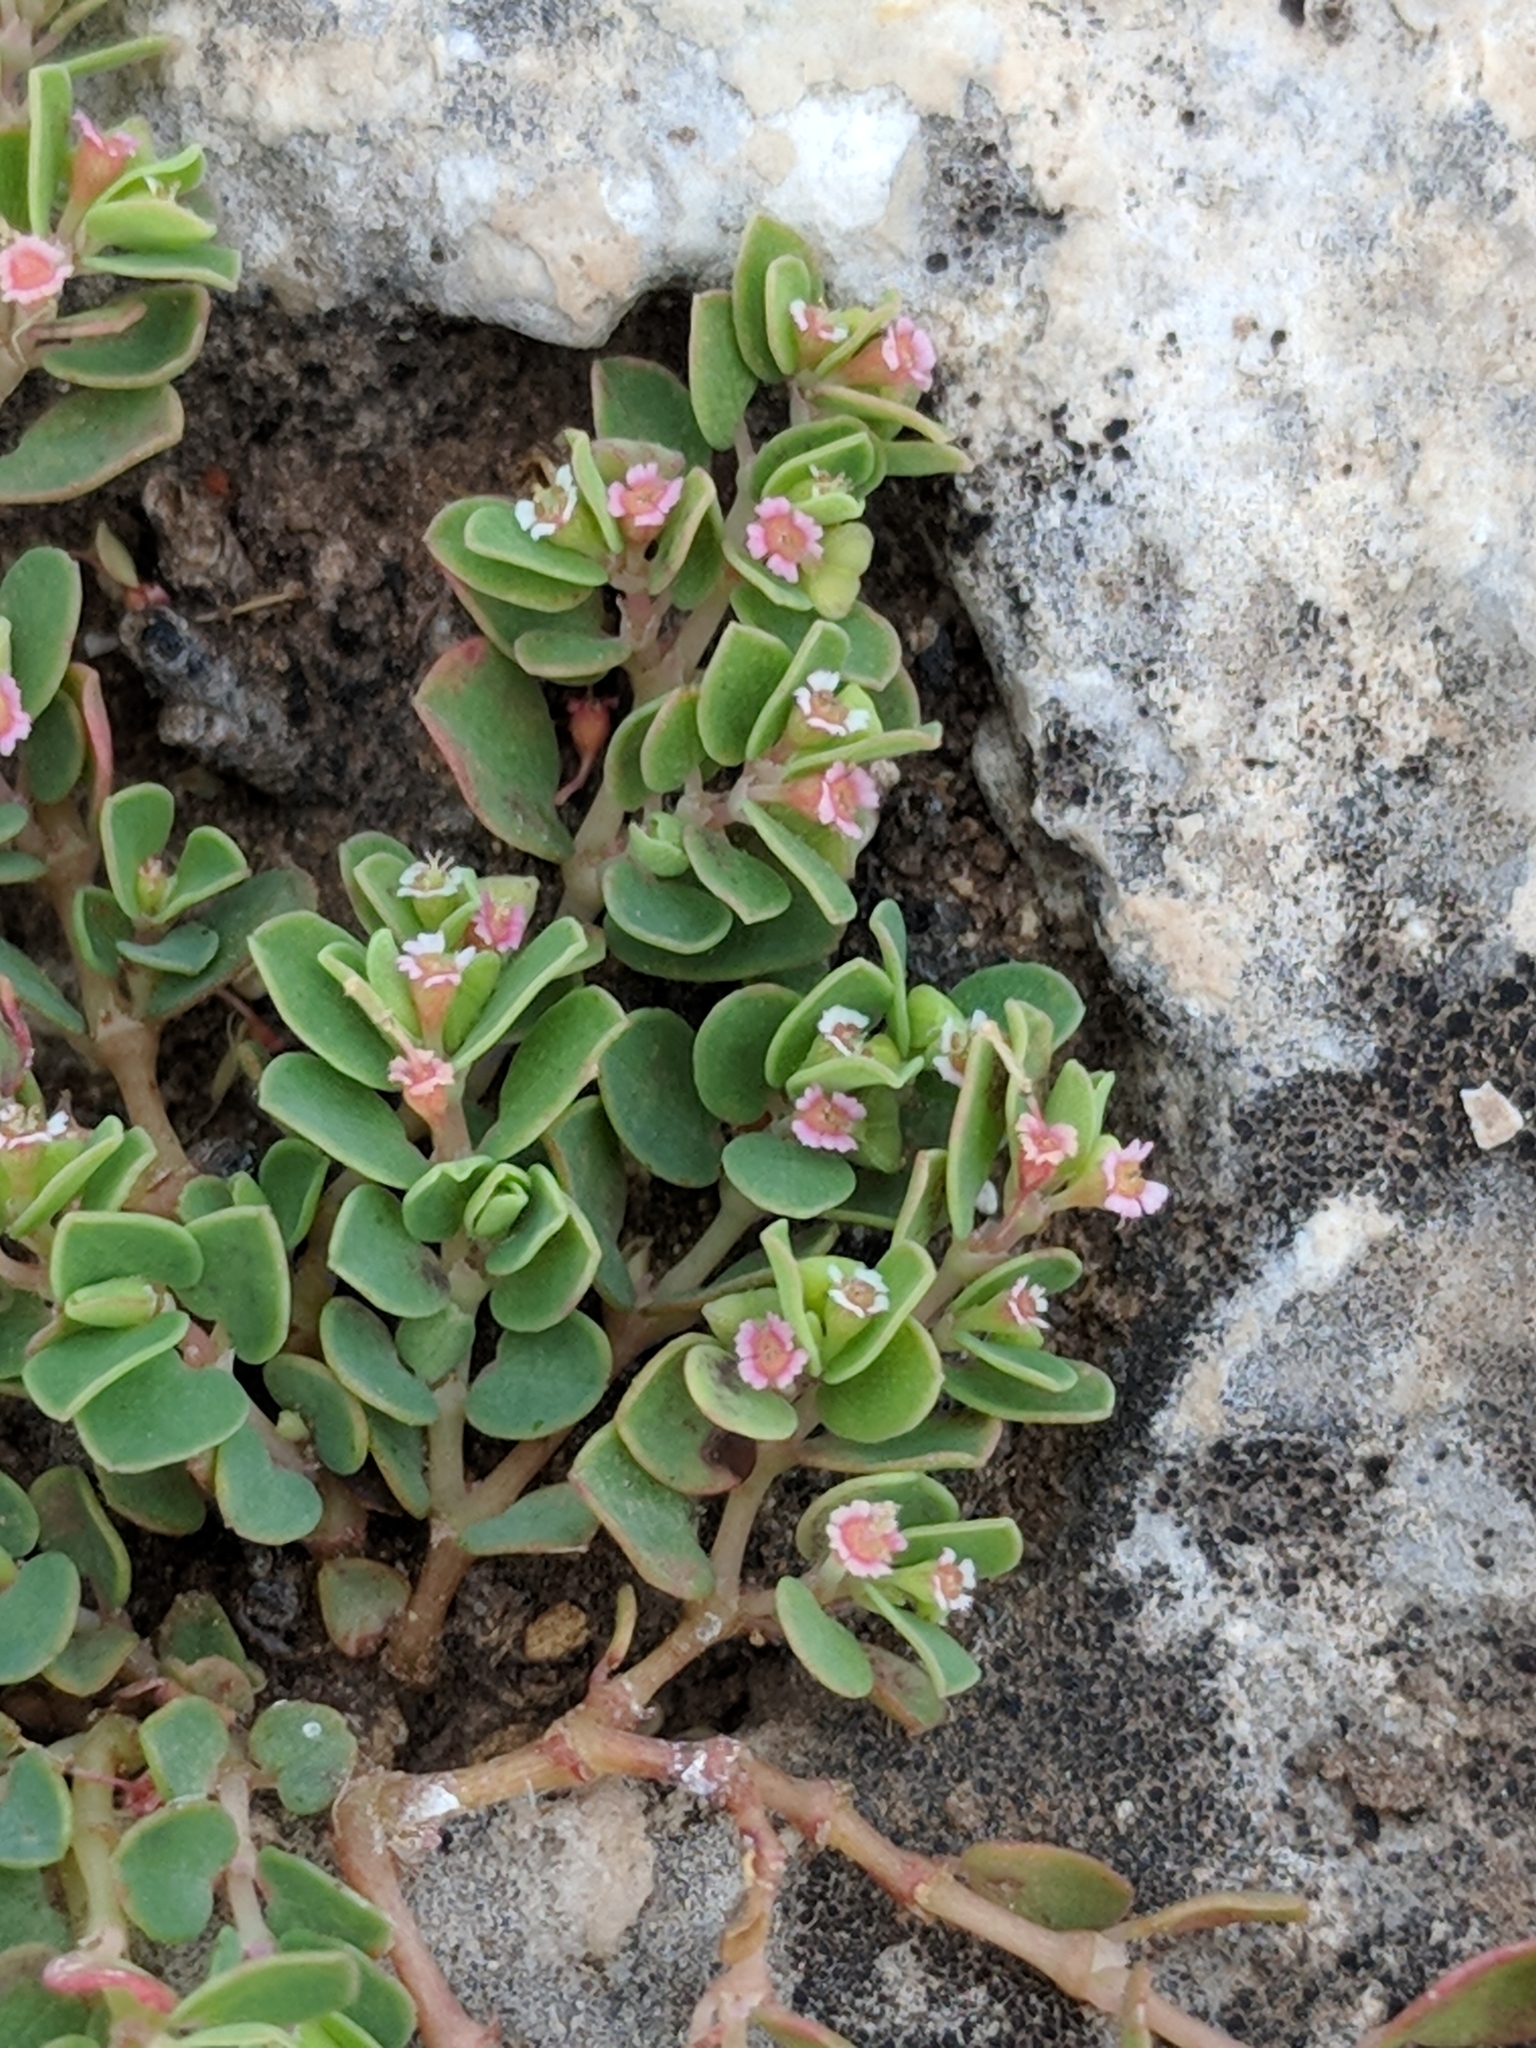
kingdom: Plantae
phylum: Tracheophyta
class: Magnoliopsida
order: Malpighiales
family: Euphorbiaceae
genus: Euphorbia
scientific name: Euphorbia serpens
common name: Matted sandmat
